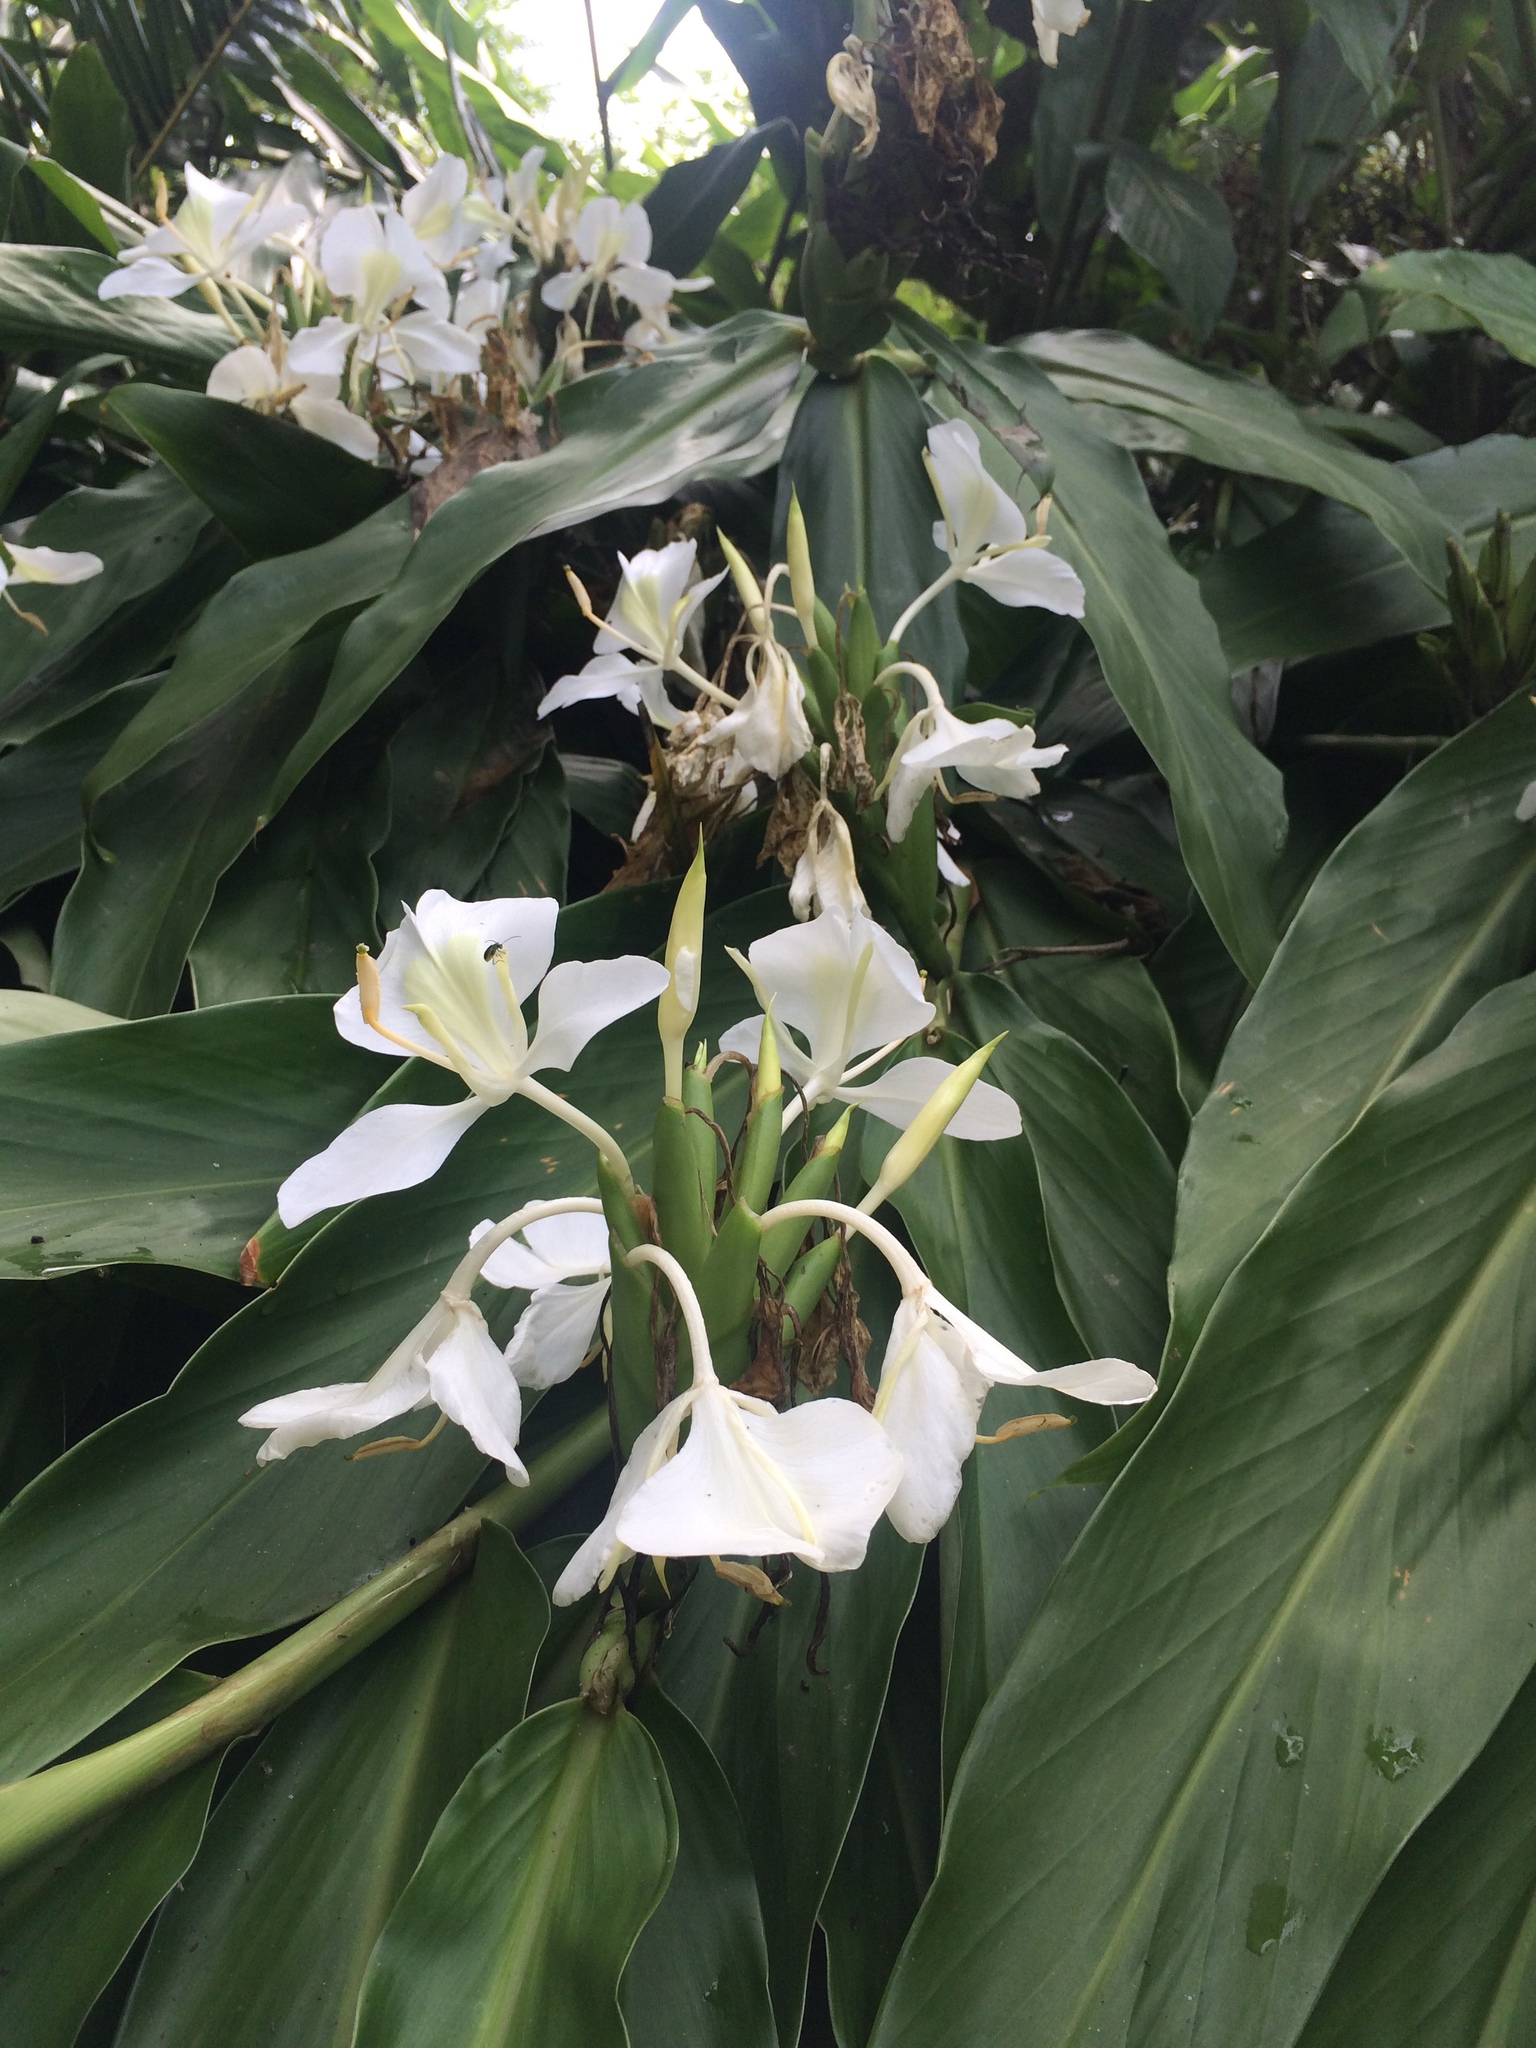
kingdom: Plantae
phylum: Tracheophyta
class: Liliopsida
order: Zingiberales
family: Zingiberaceae
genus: Hedychium
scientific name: Hedychium coronarium
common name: White garland-lily
